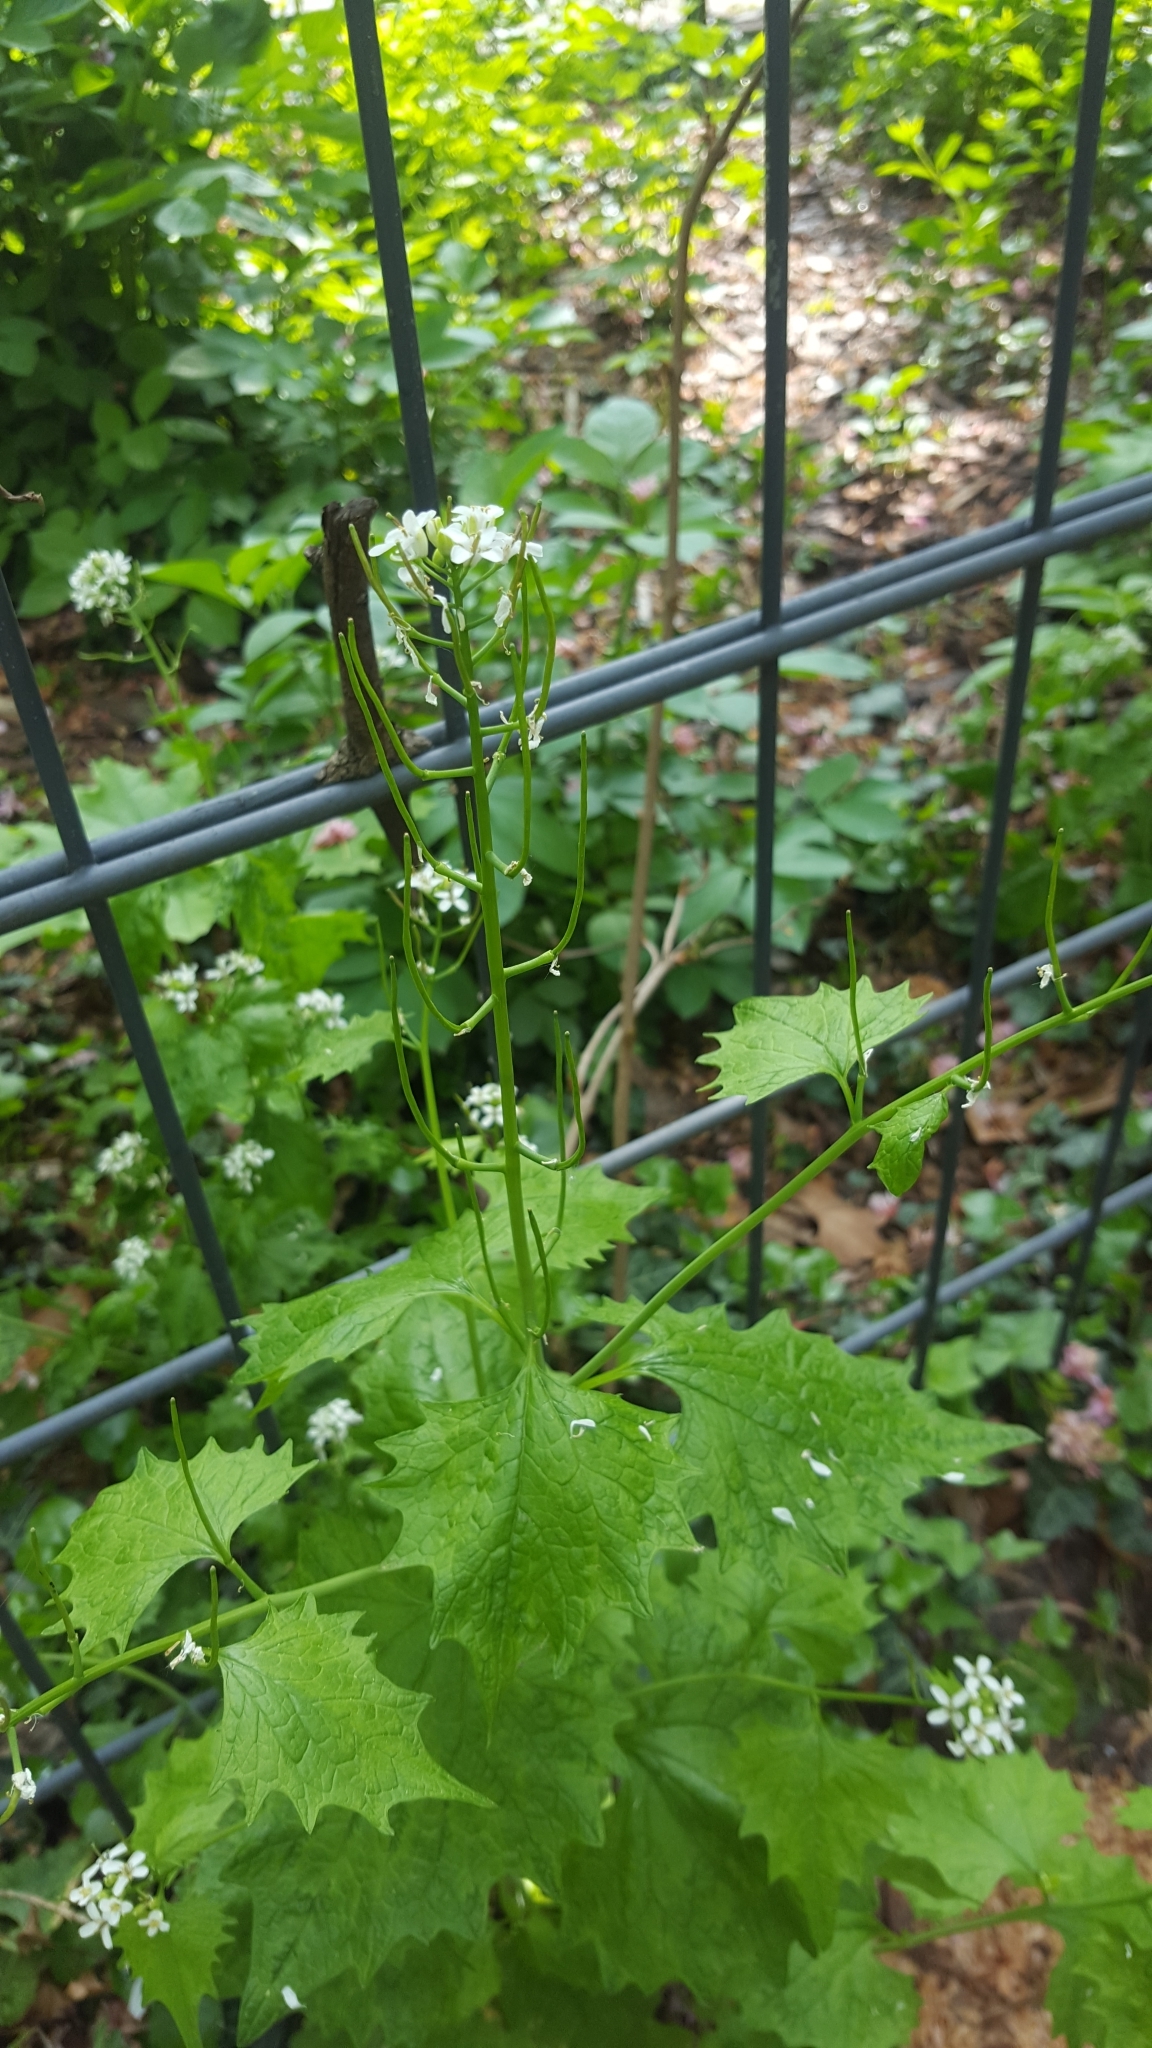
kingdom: Plantae
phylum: Tracheophyta
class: Magnoliopsida
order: Brassicales
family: Brassicaceae
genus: Alliaria
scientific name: Alliaria petiolata
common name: Garlic mustard
